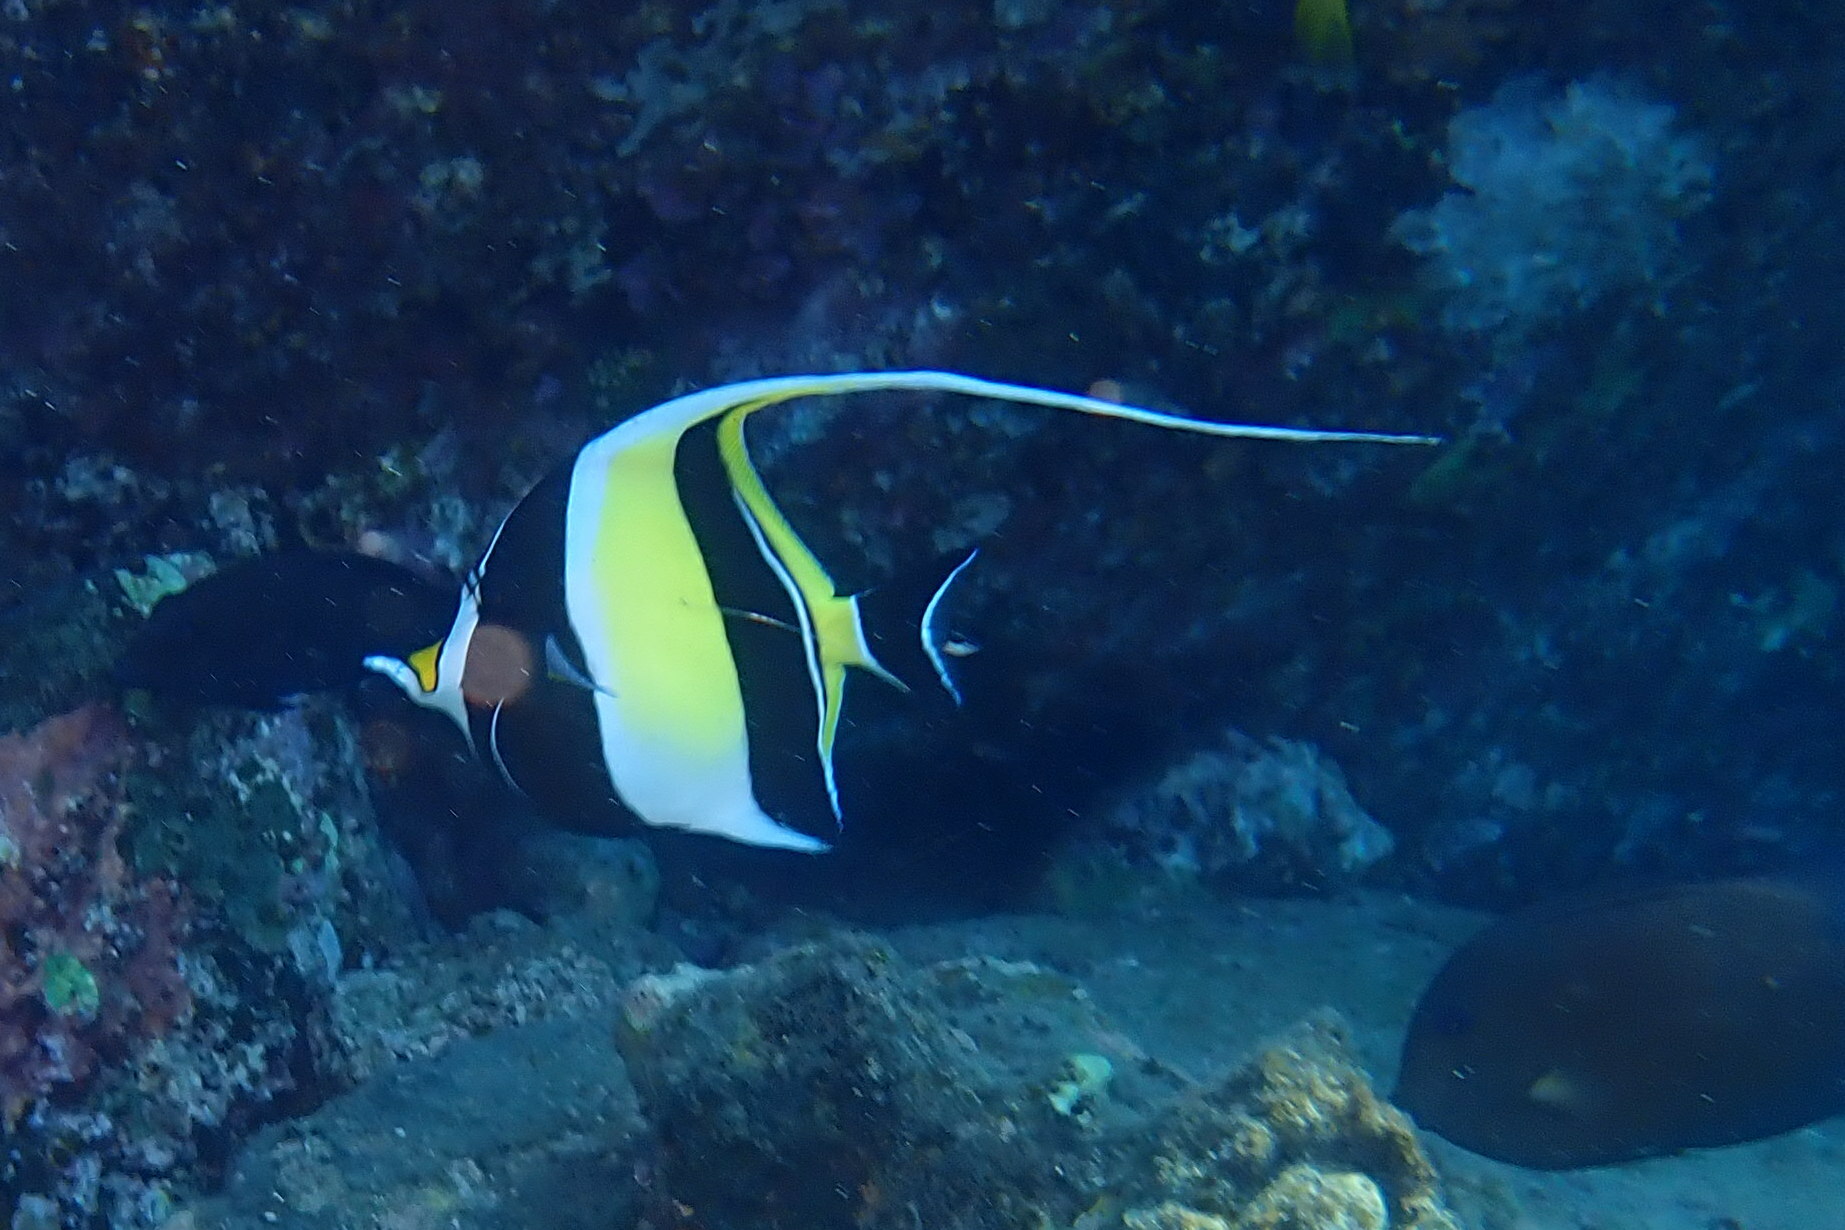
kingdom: Animalia
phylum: Chordata
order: Perciformes
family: Zanclidae
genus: Zanclus
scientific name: Zanclus cornutus
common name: Moorish idol
